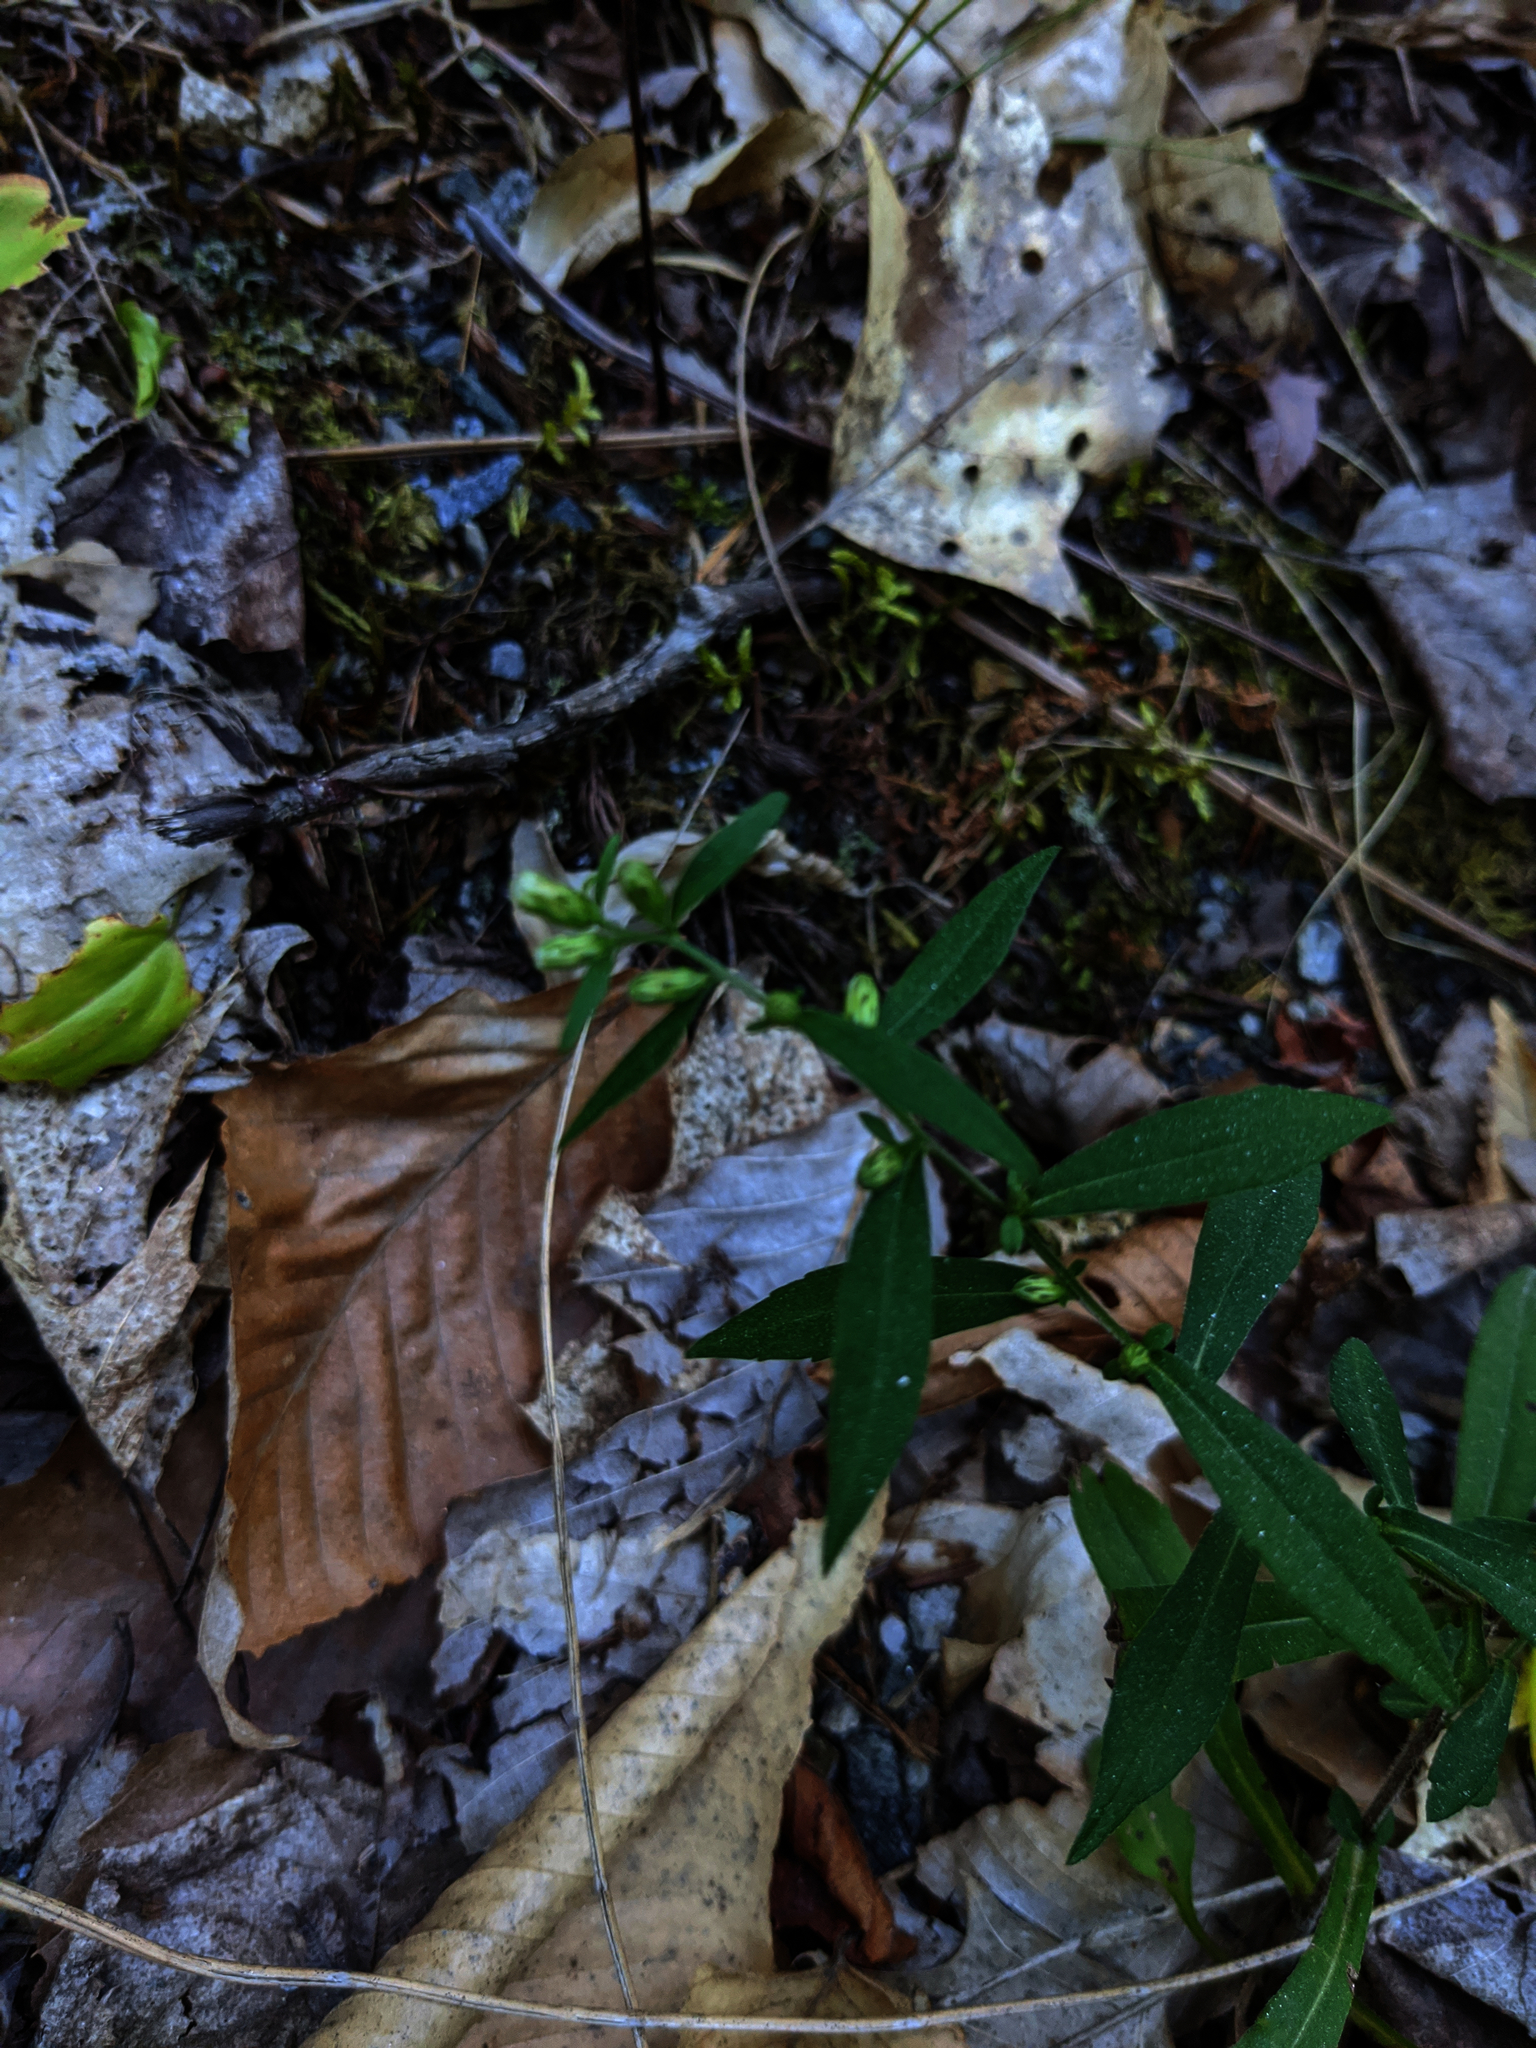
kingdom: Plantae
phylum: Tracheophyta
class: Magnoliopsida
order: Asterales
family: Asteraceae
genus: Symphyotrichum
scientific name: Symphyotrichum lateriflorum
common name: Calico aster
